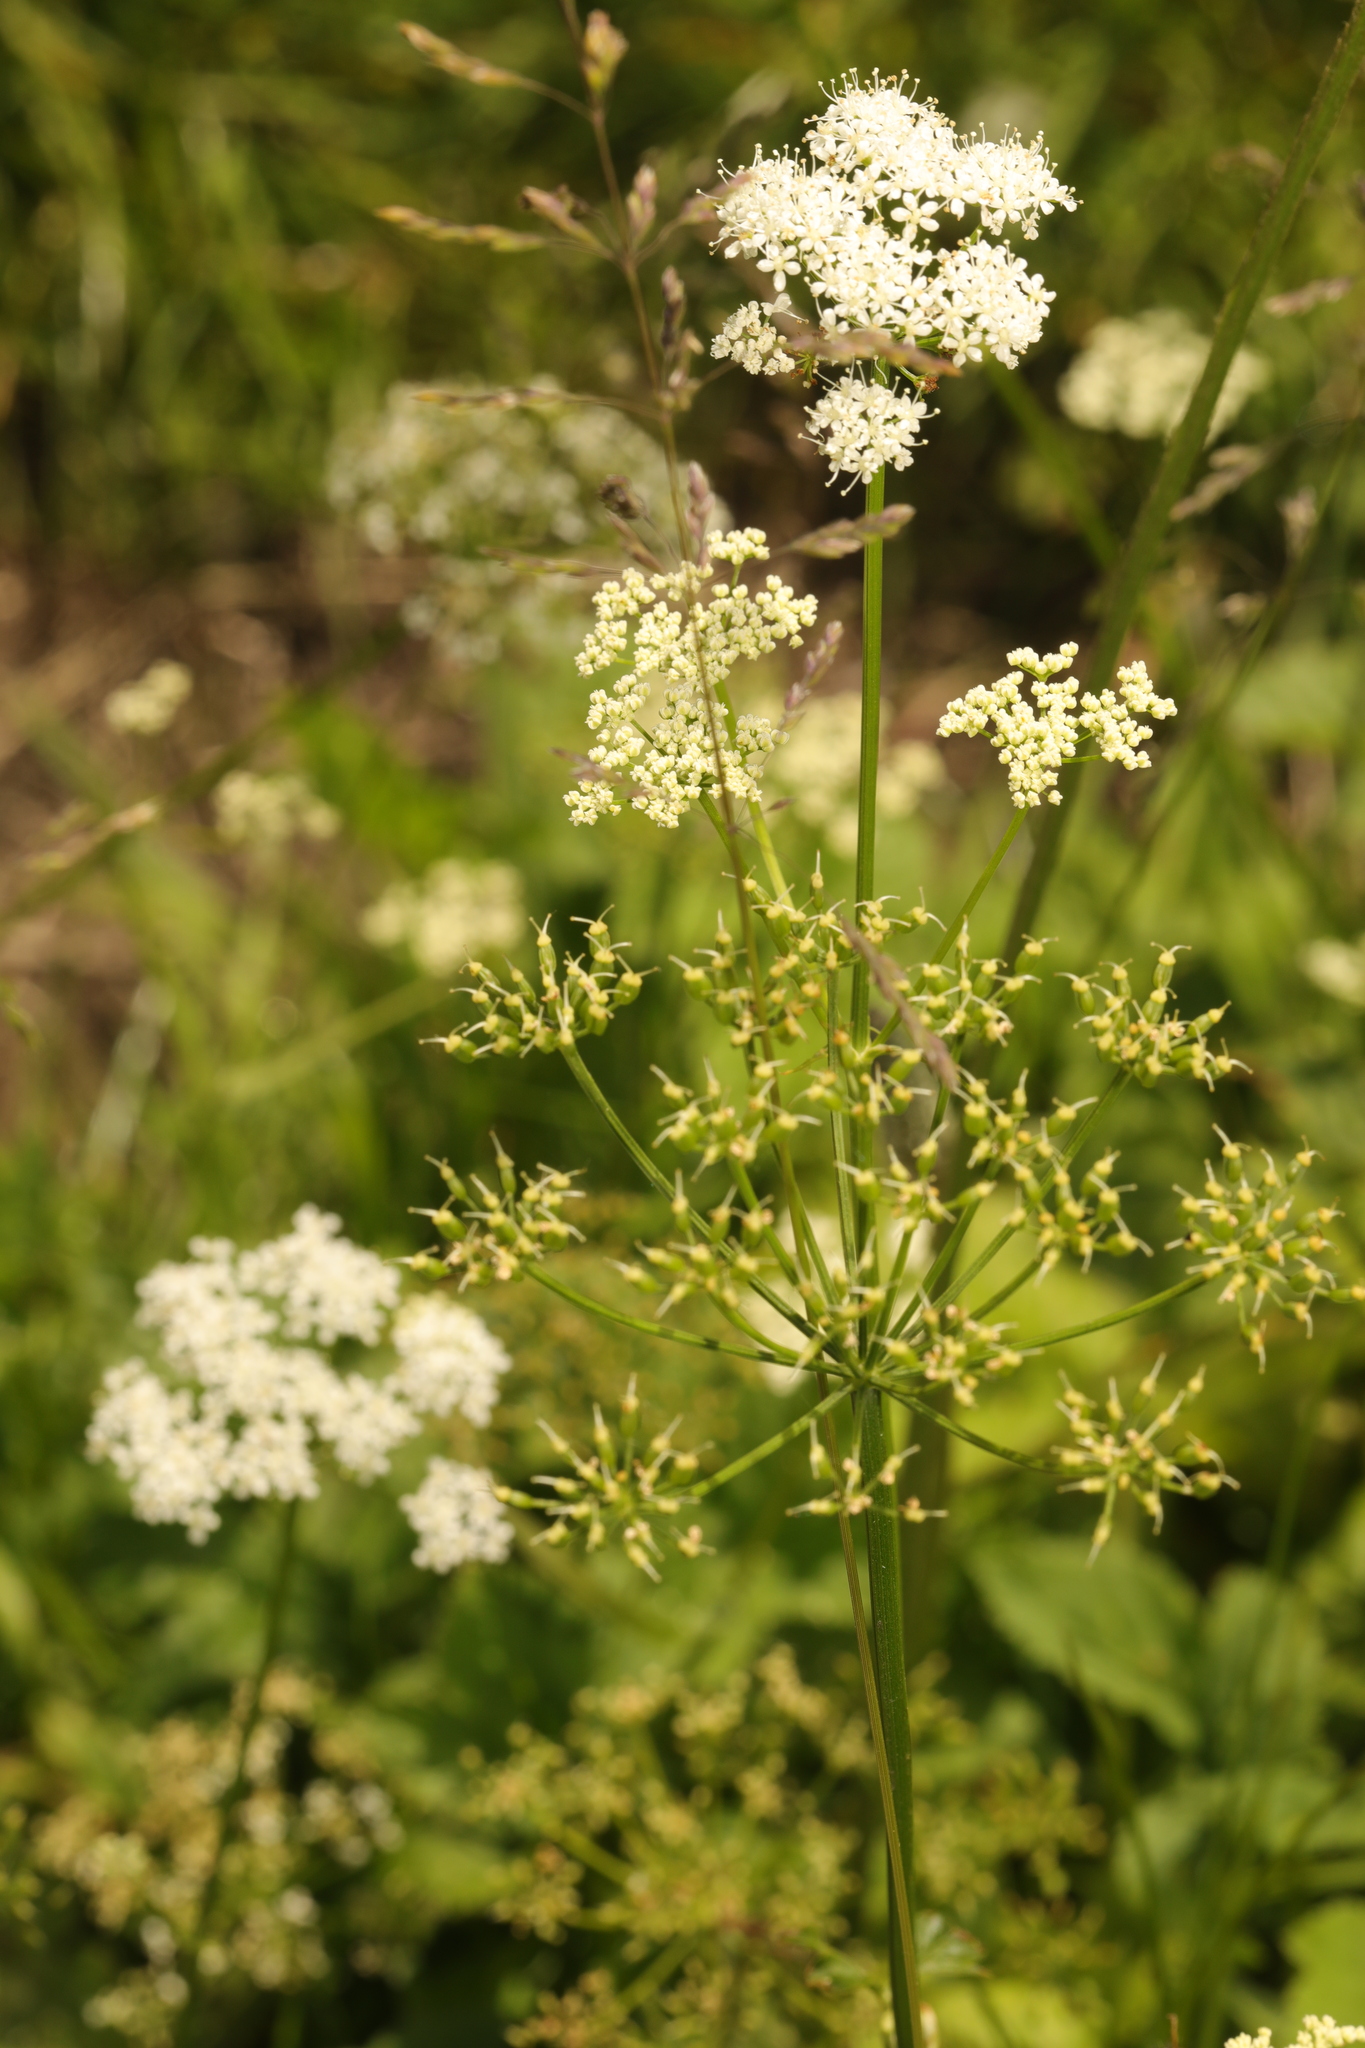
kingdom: Plantae
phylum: Tracheophyta
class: Magnoliopsida
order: Apiales
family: Apiaceae
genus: Aegopodium
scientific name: Aegopodium podagraria
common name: Ground-elder
